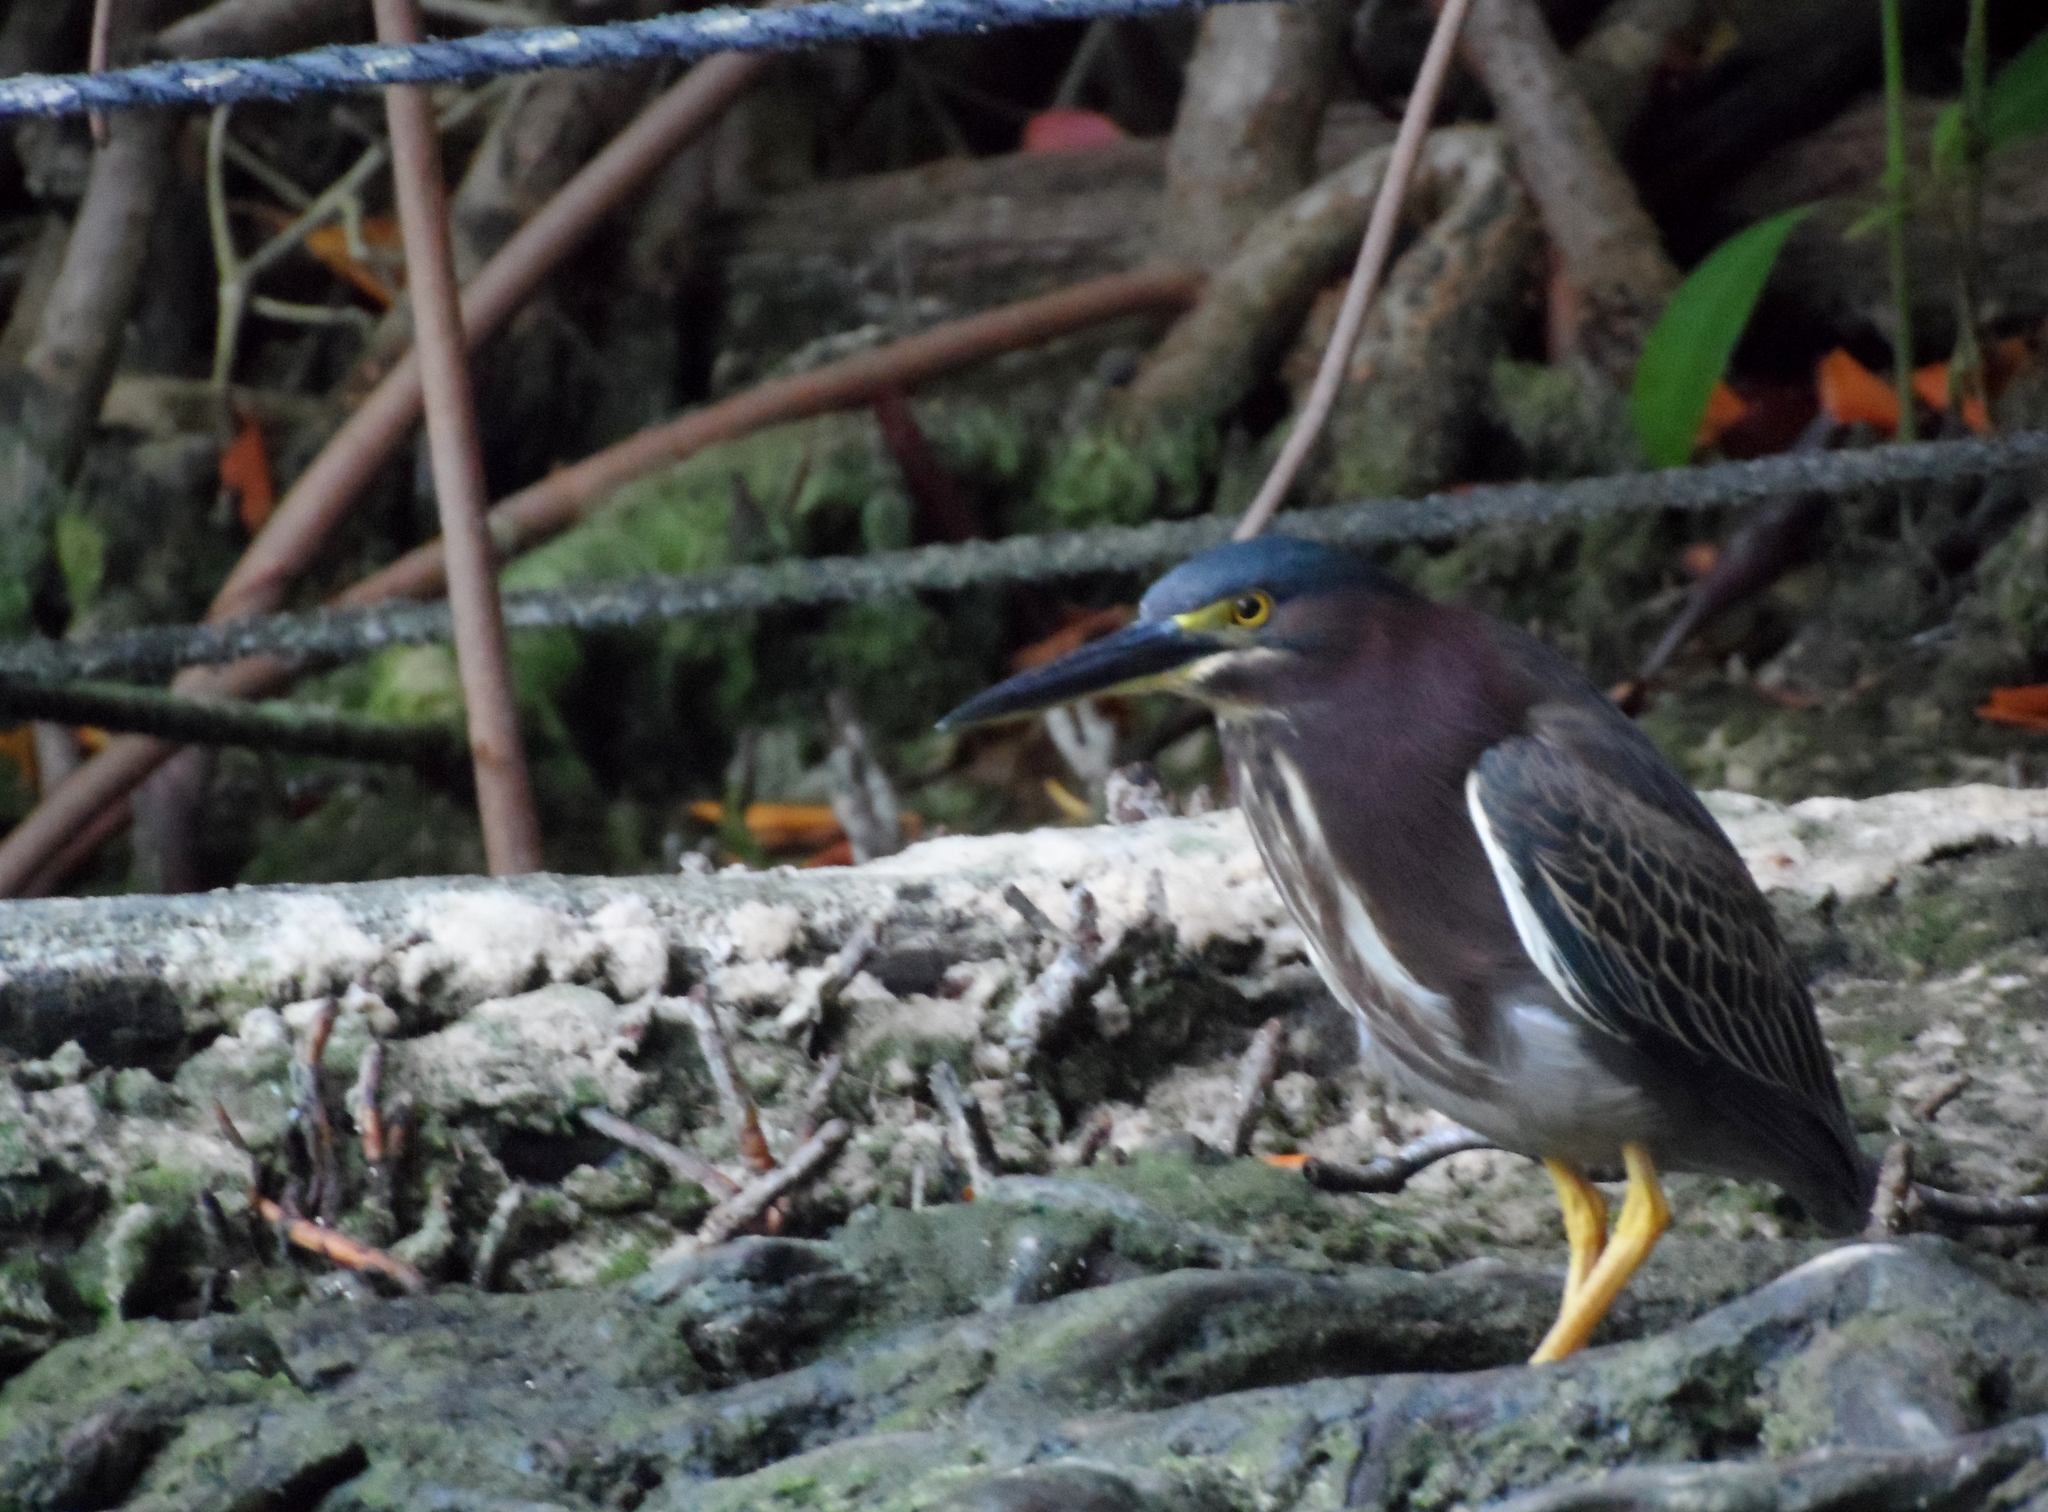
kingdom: Animalia
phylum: Chordata
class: Aves
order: Pelecaniformes
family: Ardeidae
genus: Butorides
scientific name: Butorides virescens
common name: Green heron
